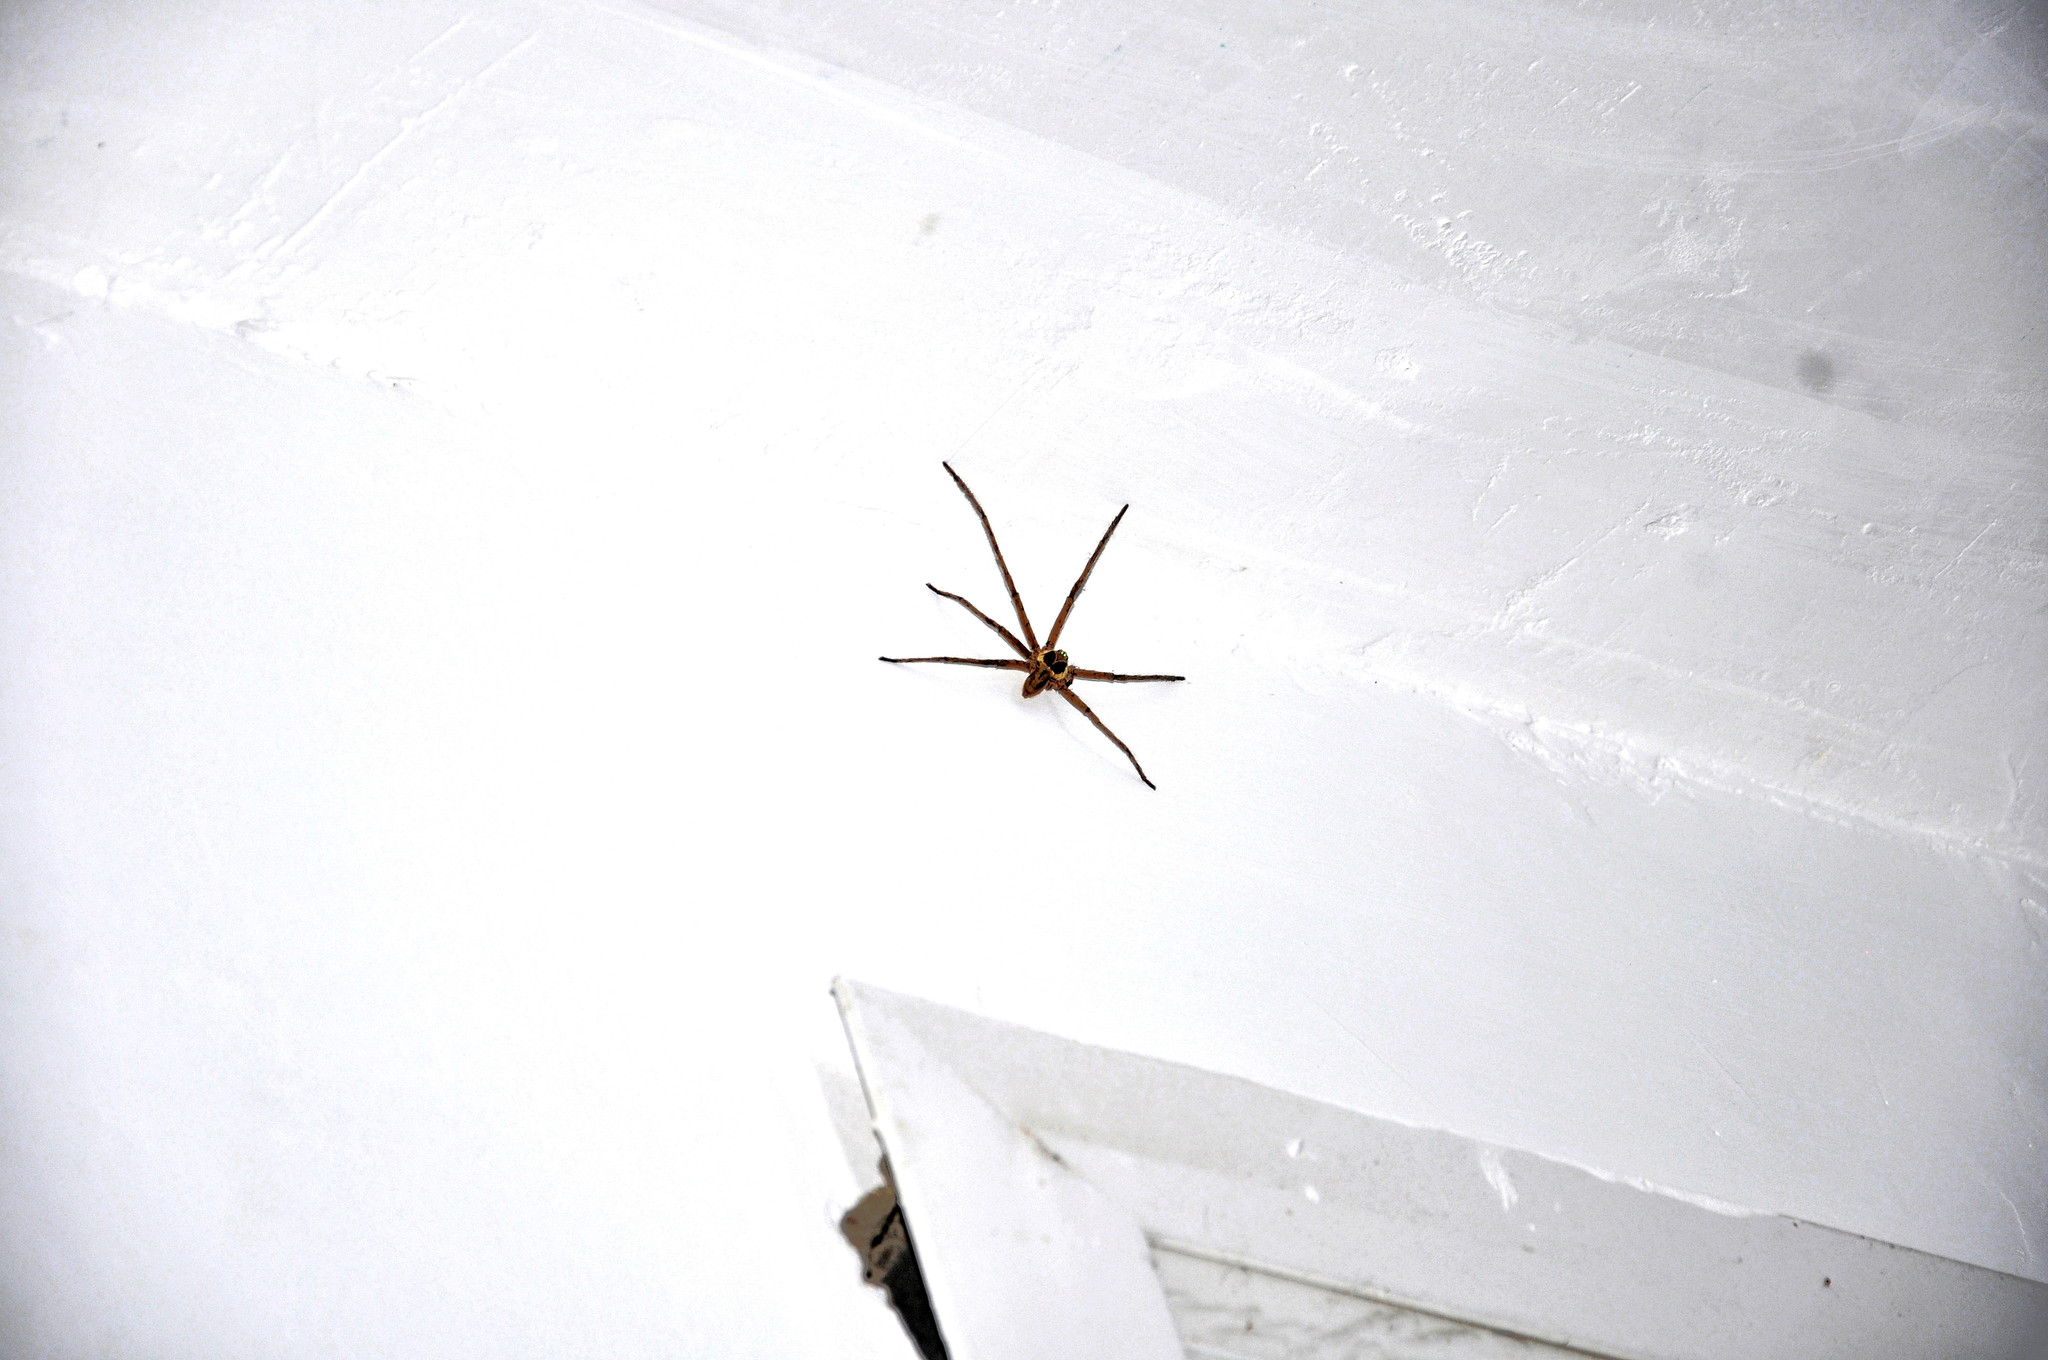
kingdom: Animalia
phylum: Arthropoda
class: Arachnida
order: Araneae
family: Sparassidae
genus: Heteropoda
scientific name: Heteropoda venatoria
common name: Huntsman spider
